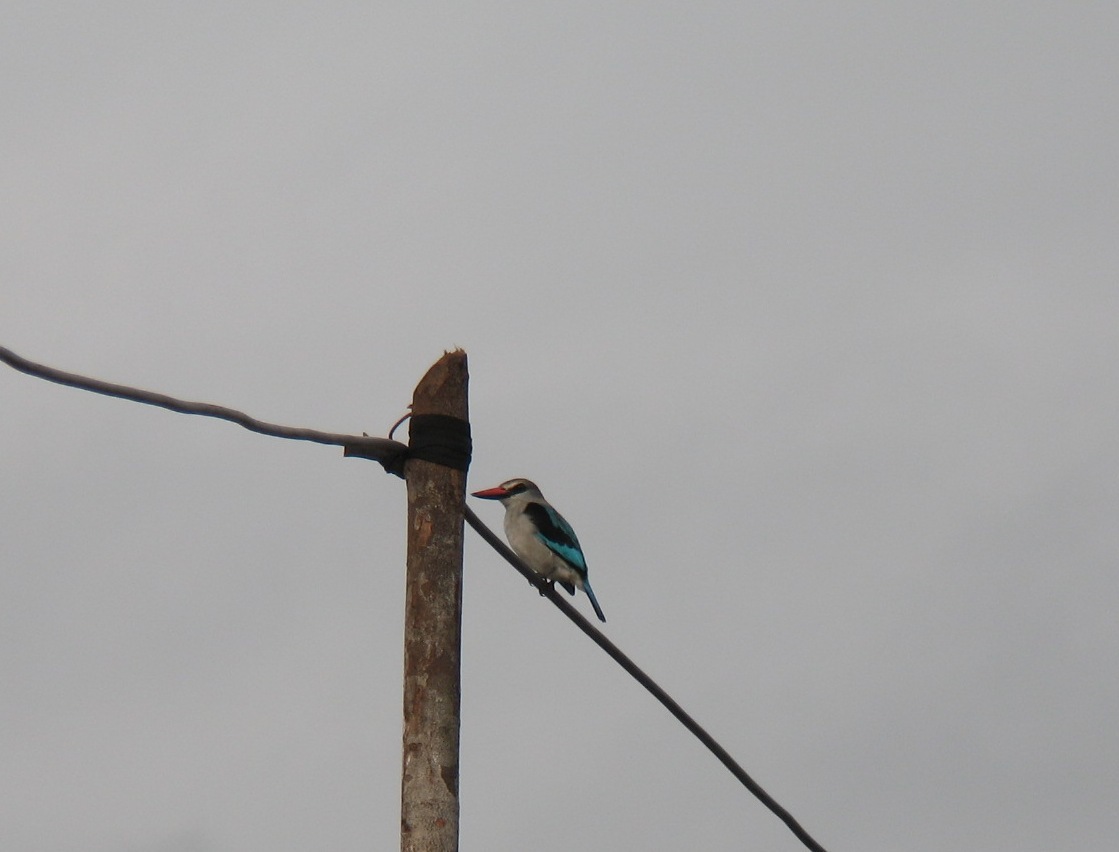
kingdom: Animalia
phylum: Chordata
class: Aves
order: Coraciiformes
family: Alcedinidae
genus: Halcyon
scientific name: Halcyon senegalensis
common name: Woodland kingfisher
